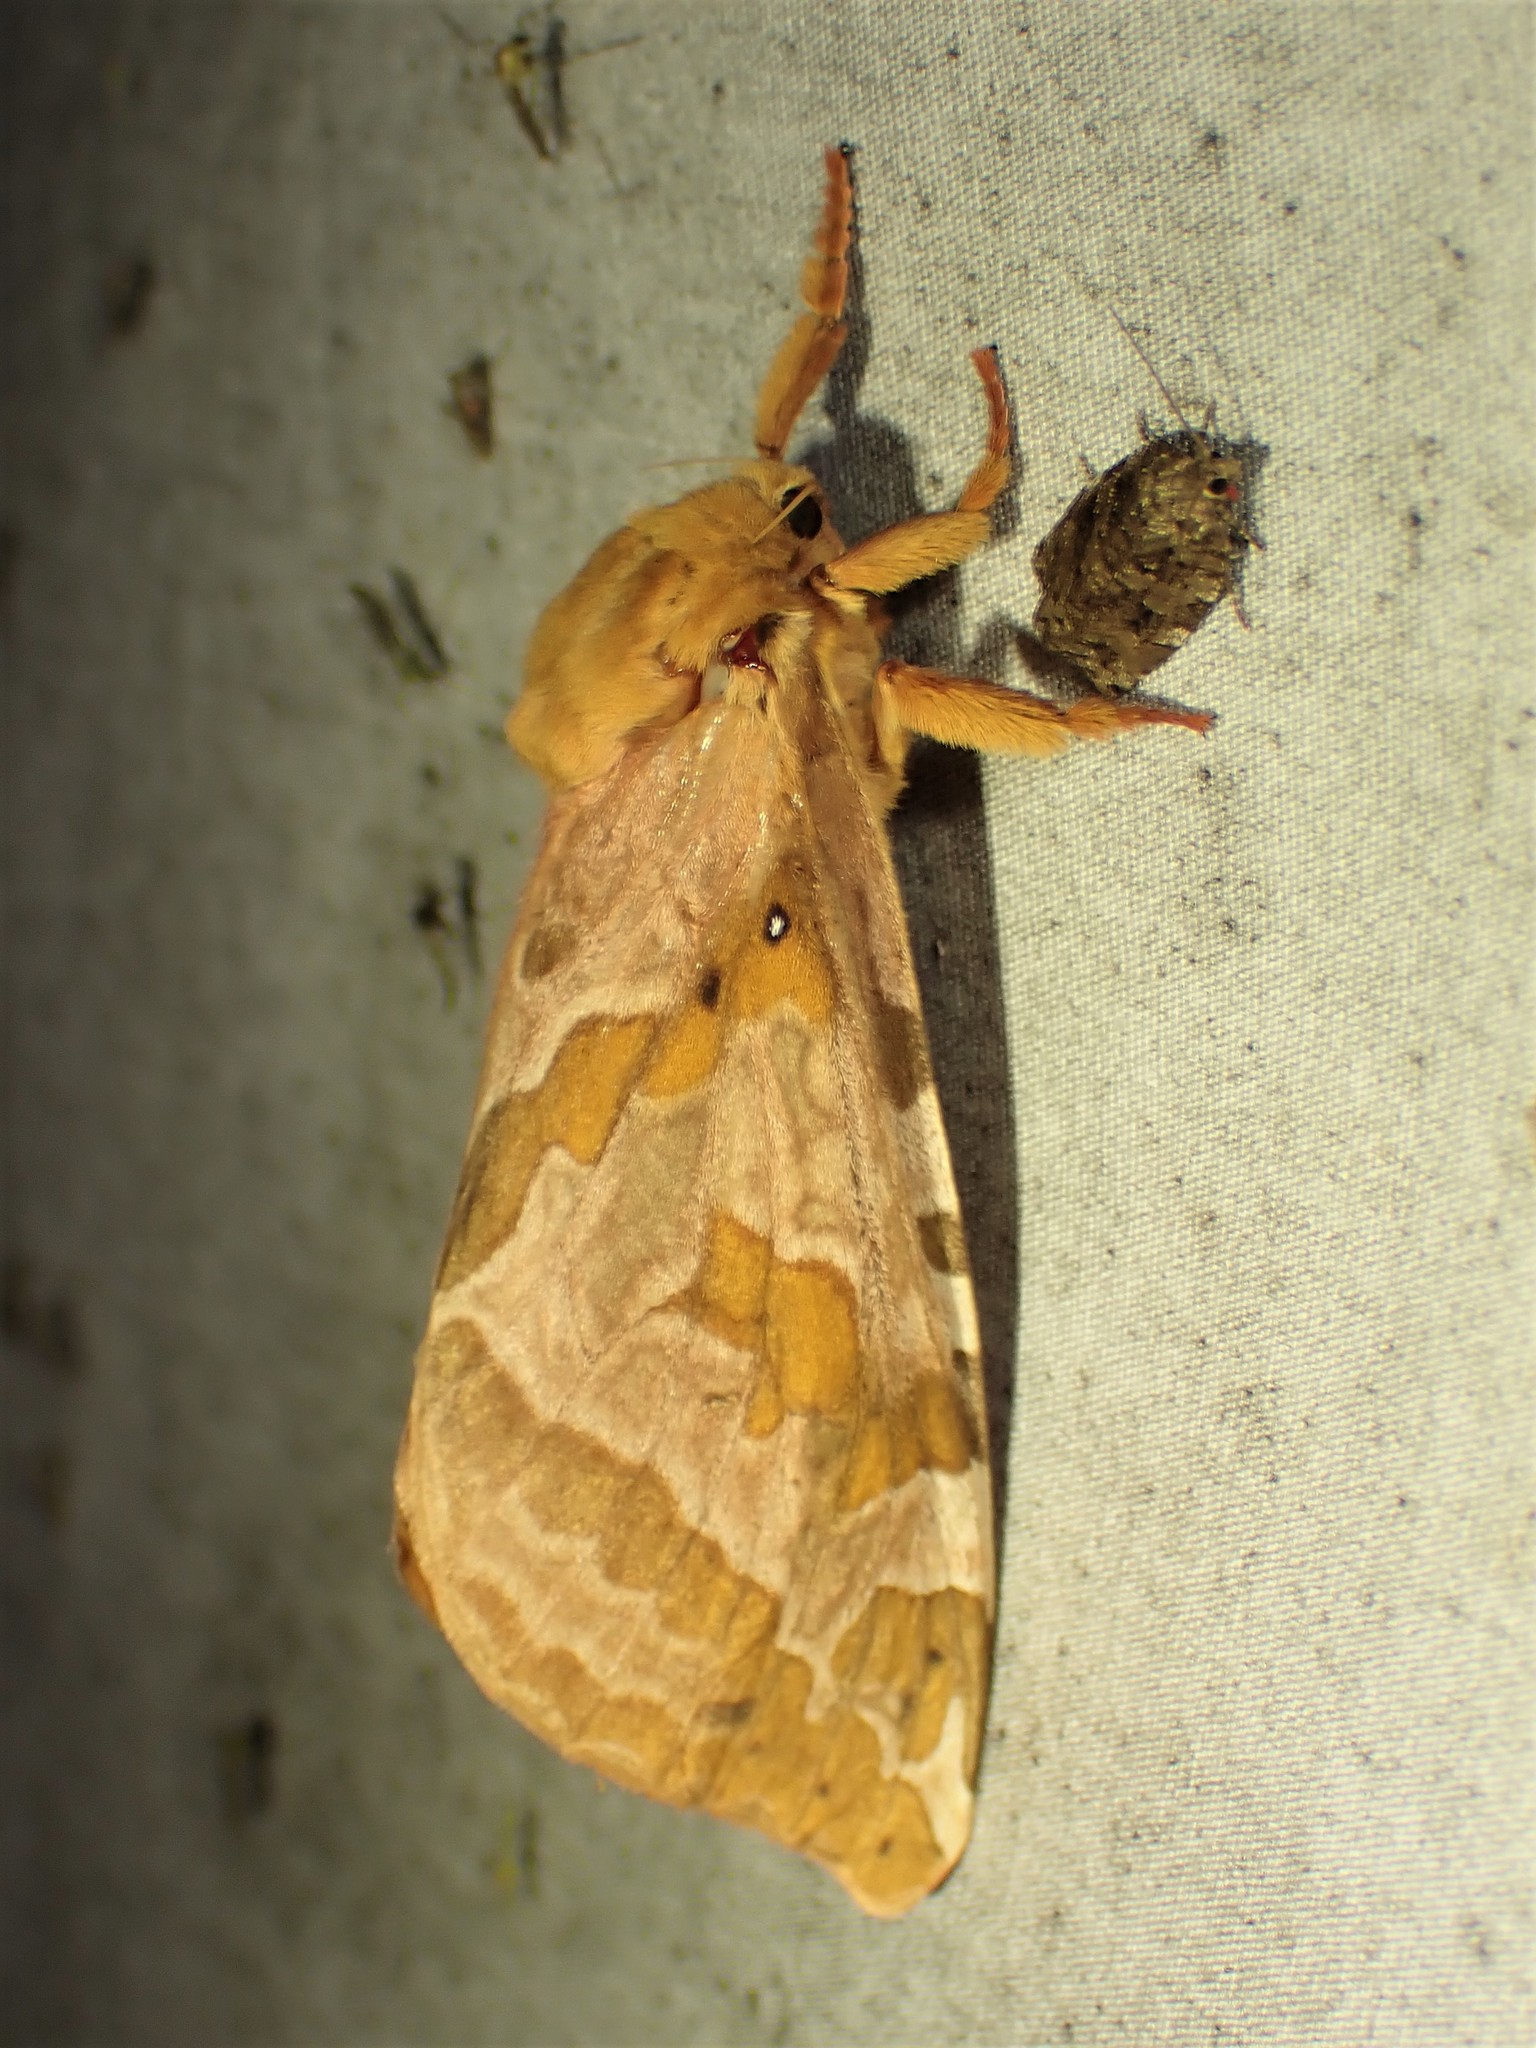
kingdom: Animalia
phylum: Arthropoda
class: Insecta
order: Lepidoptera
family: Hepialidae
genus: Sthenopis
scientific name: Sthenopis purpurascens
